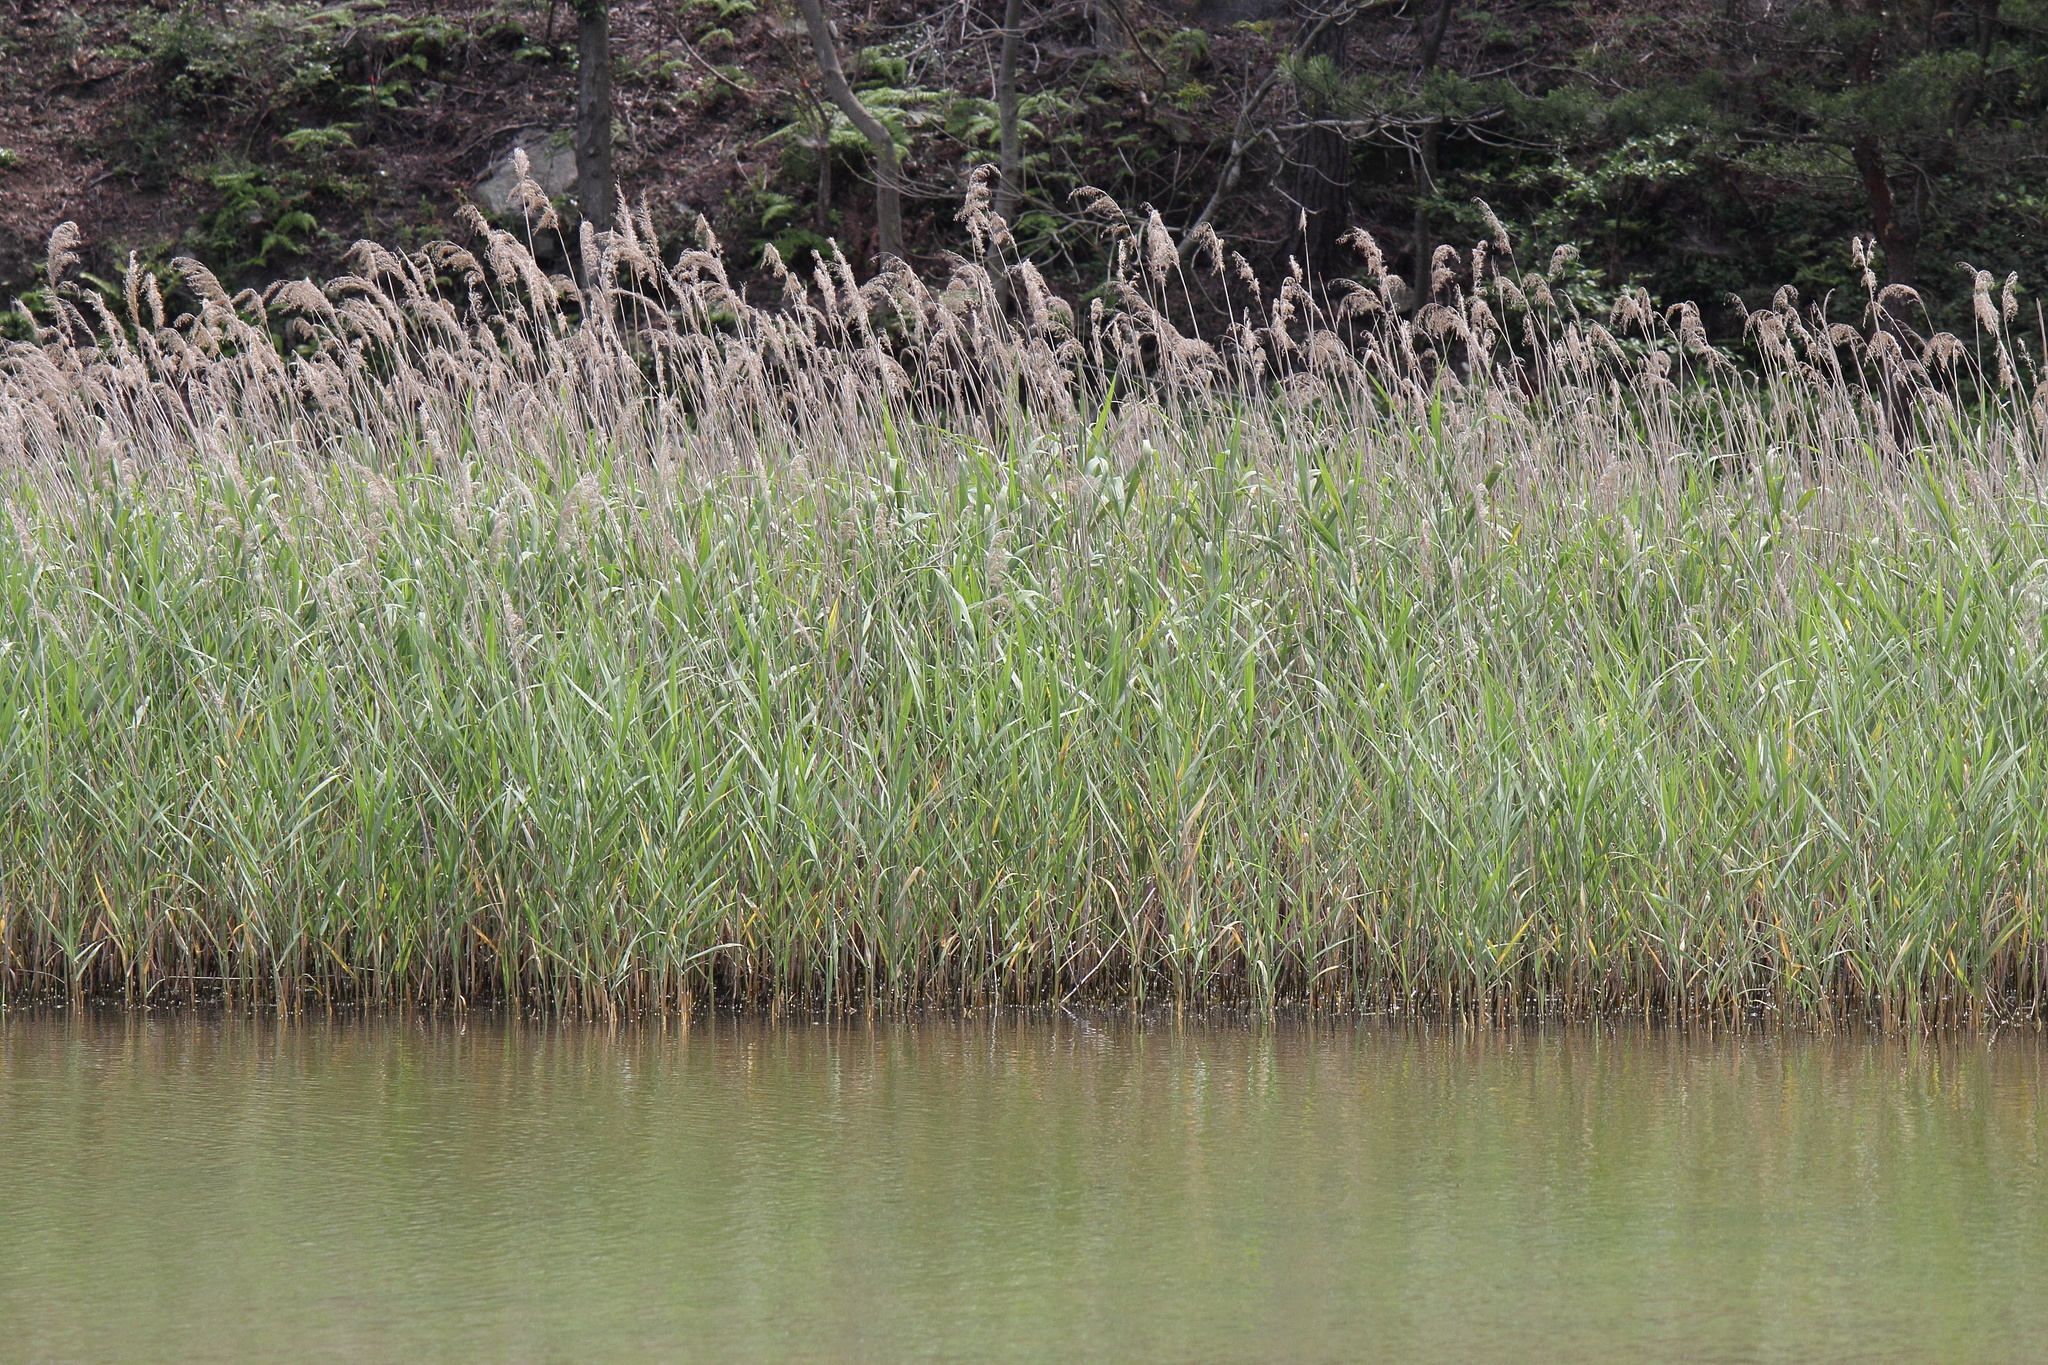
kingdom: Plantae
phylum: Tracheophyta
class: Liliopsida
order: Poales
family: Poaceae
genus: Phragmites
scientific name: Phragmites australis
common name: Common reed
